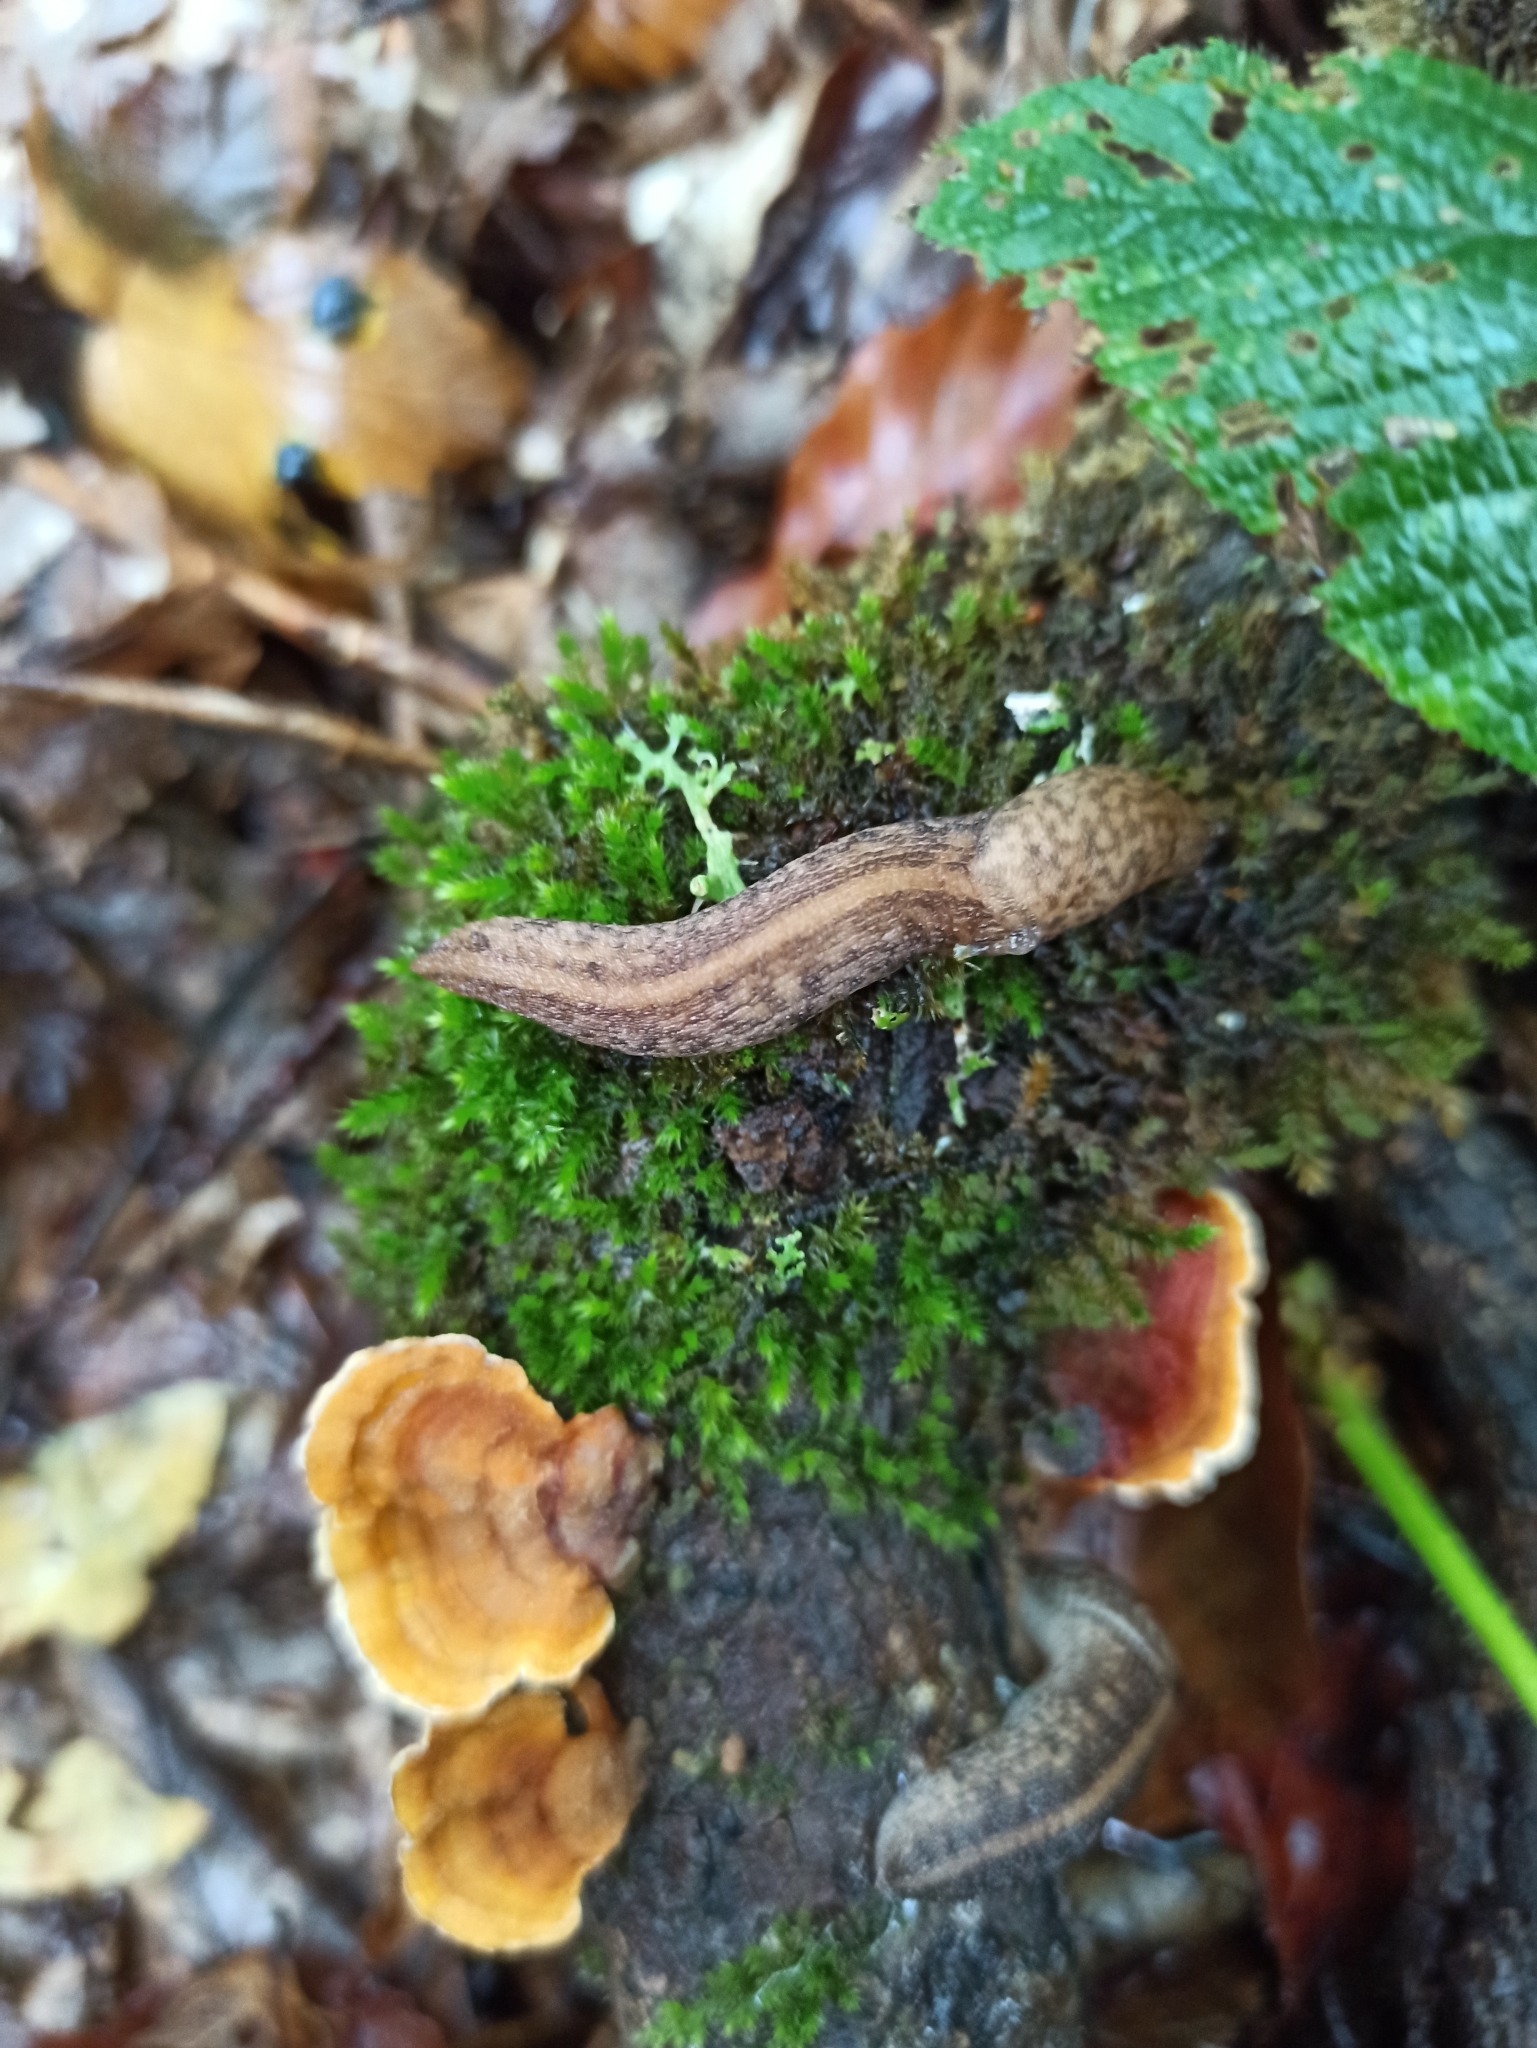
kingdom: Animalia
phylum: Mollusca
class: Gastropoda
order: Stylommatophora
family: Limacidae
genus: Eumilax
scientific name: Eumilax brandti
